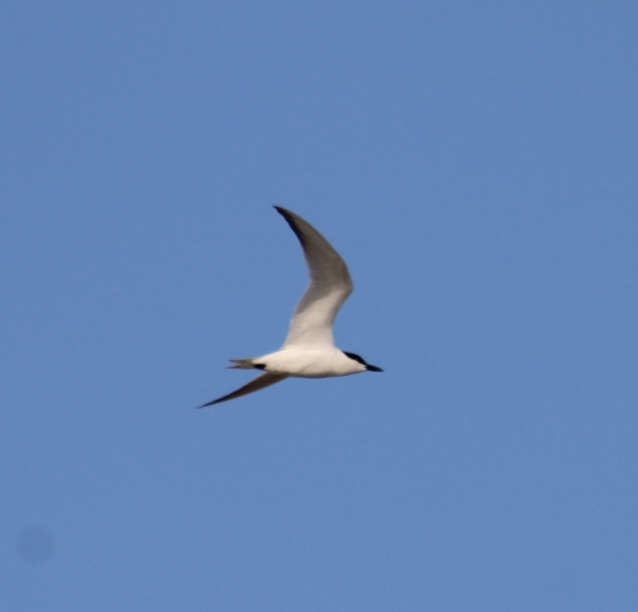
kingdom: Animalia
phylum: Chordata
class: Aves
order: Charadriiformes
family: Laridae
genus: Gelochelidon
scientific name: Gelochelidon nilotica
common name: Gull-billed tern
